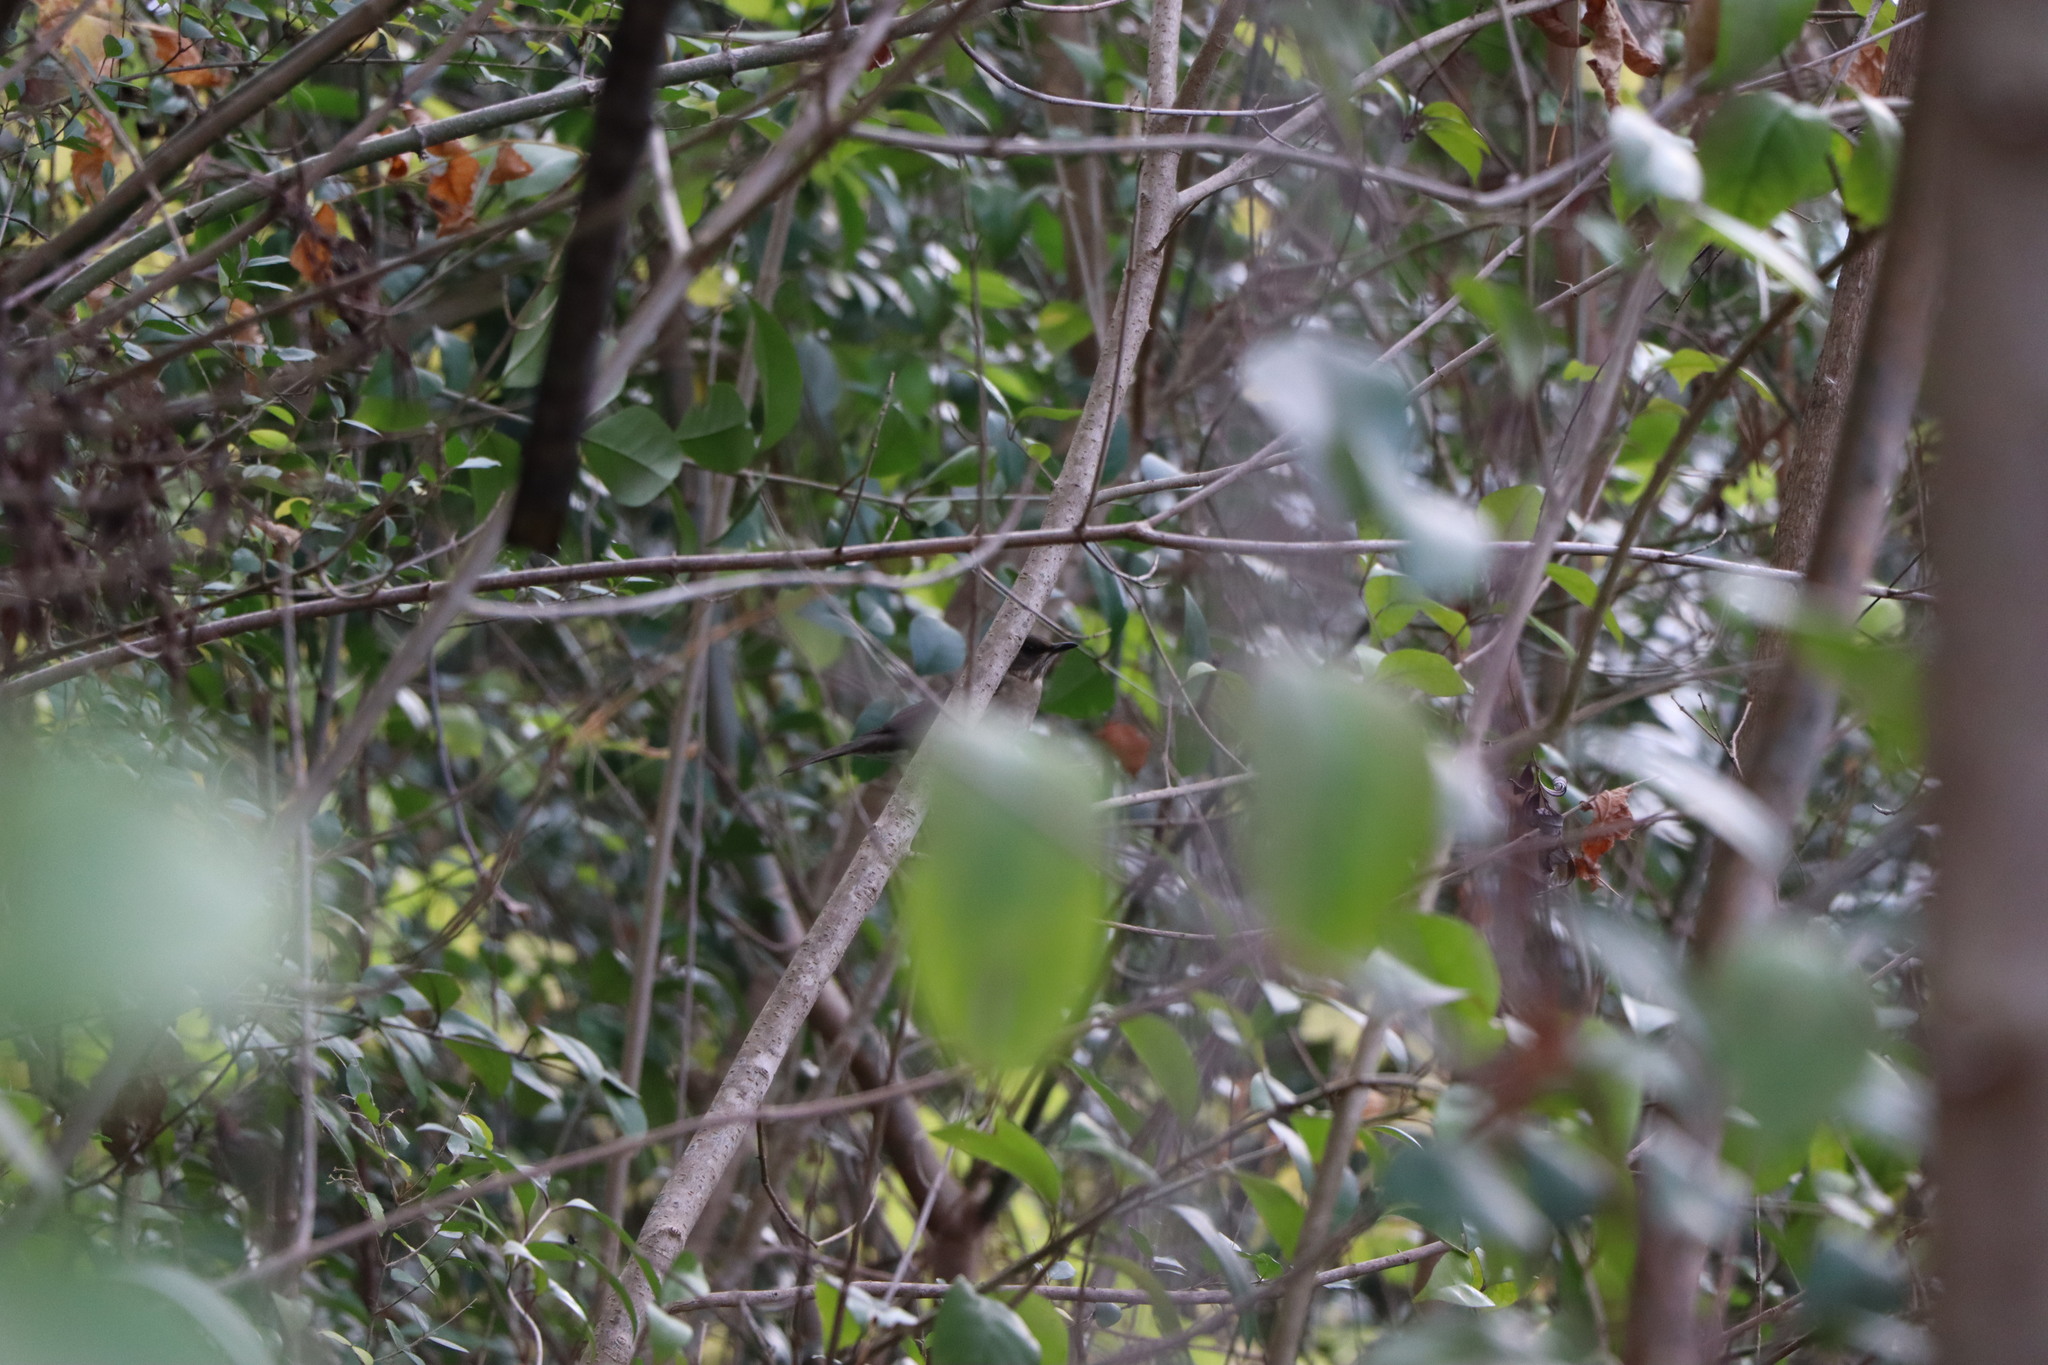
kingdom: Animalia
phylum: Chordata
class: Aves
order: Passeriformes
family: Turdidae
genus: Turdus
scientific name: Turdus amaurochalinus
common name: Creamy-bellied thrush
